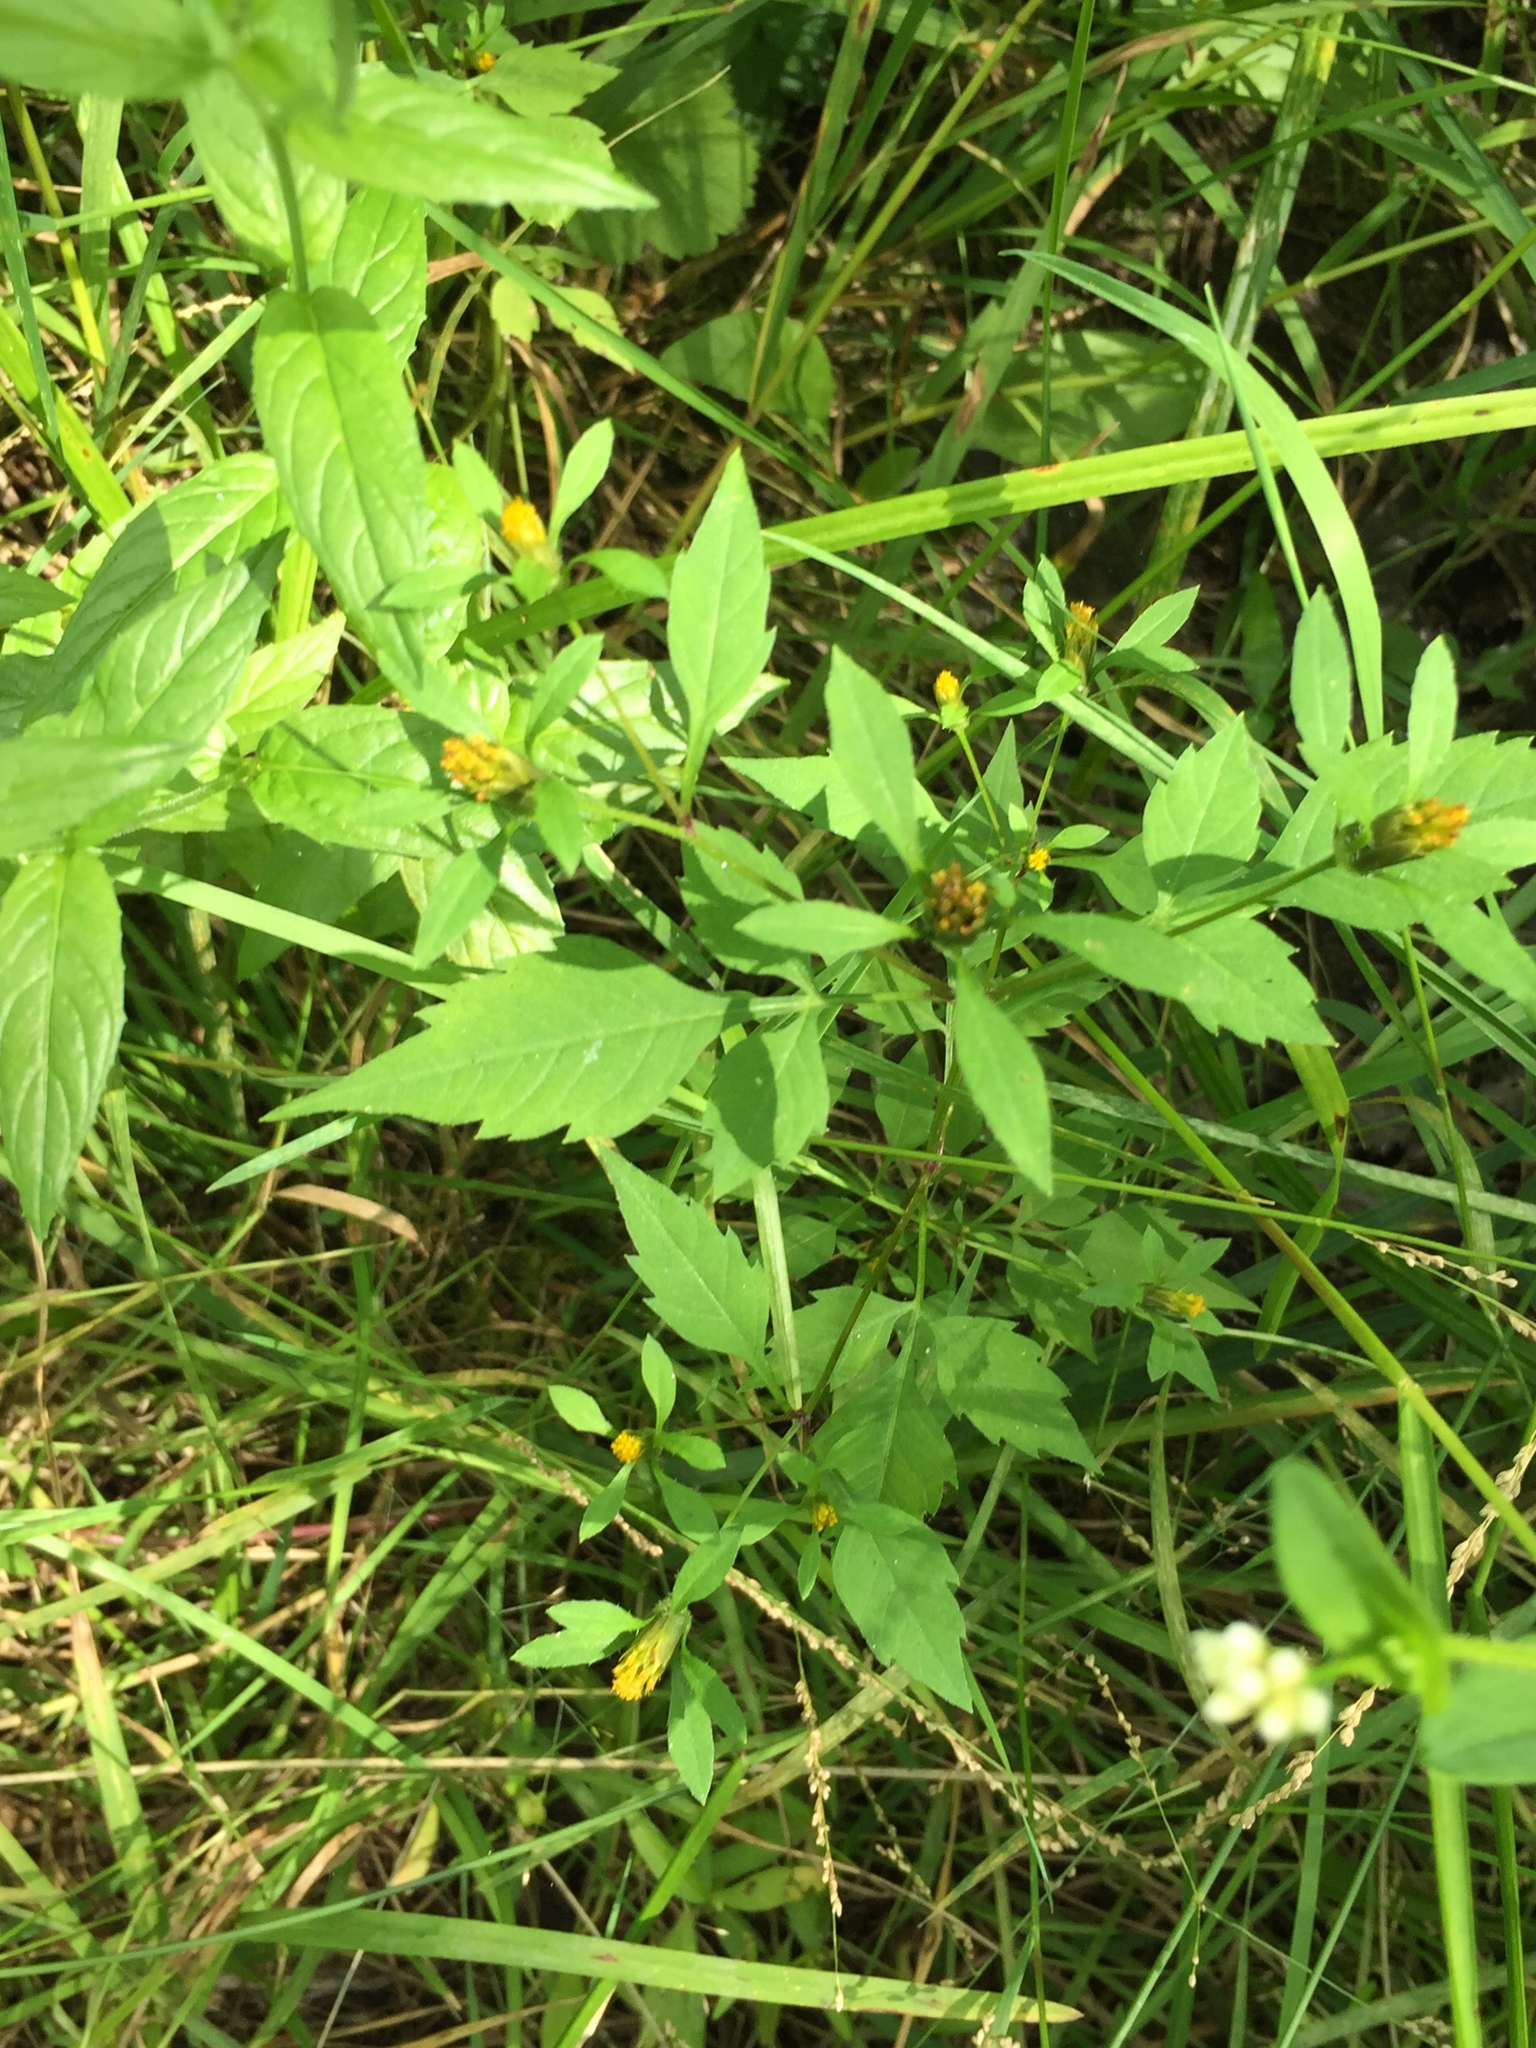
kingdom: Plantae
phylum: Tracheophyta
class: Magnoliopsida
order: Asterales
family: Asteraceae
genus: Bidens
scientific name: Bidens frondosa
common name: Beggarticks
